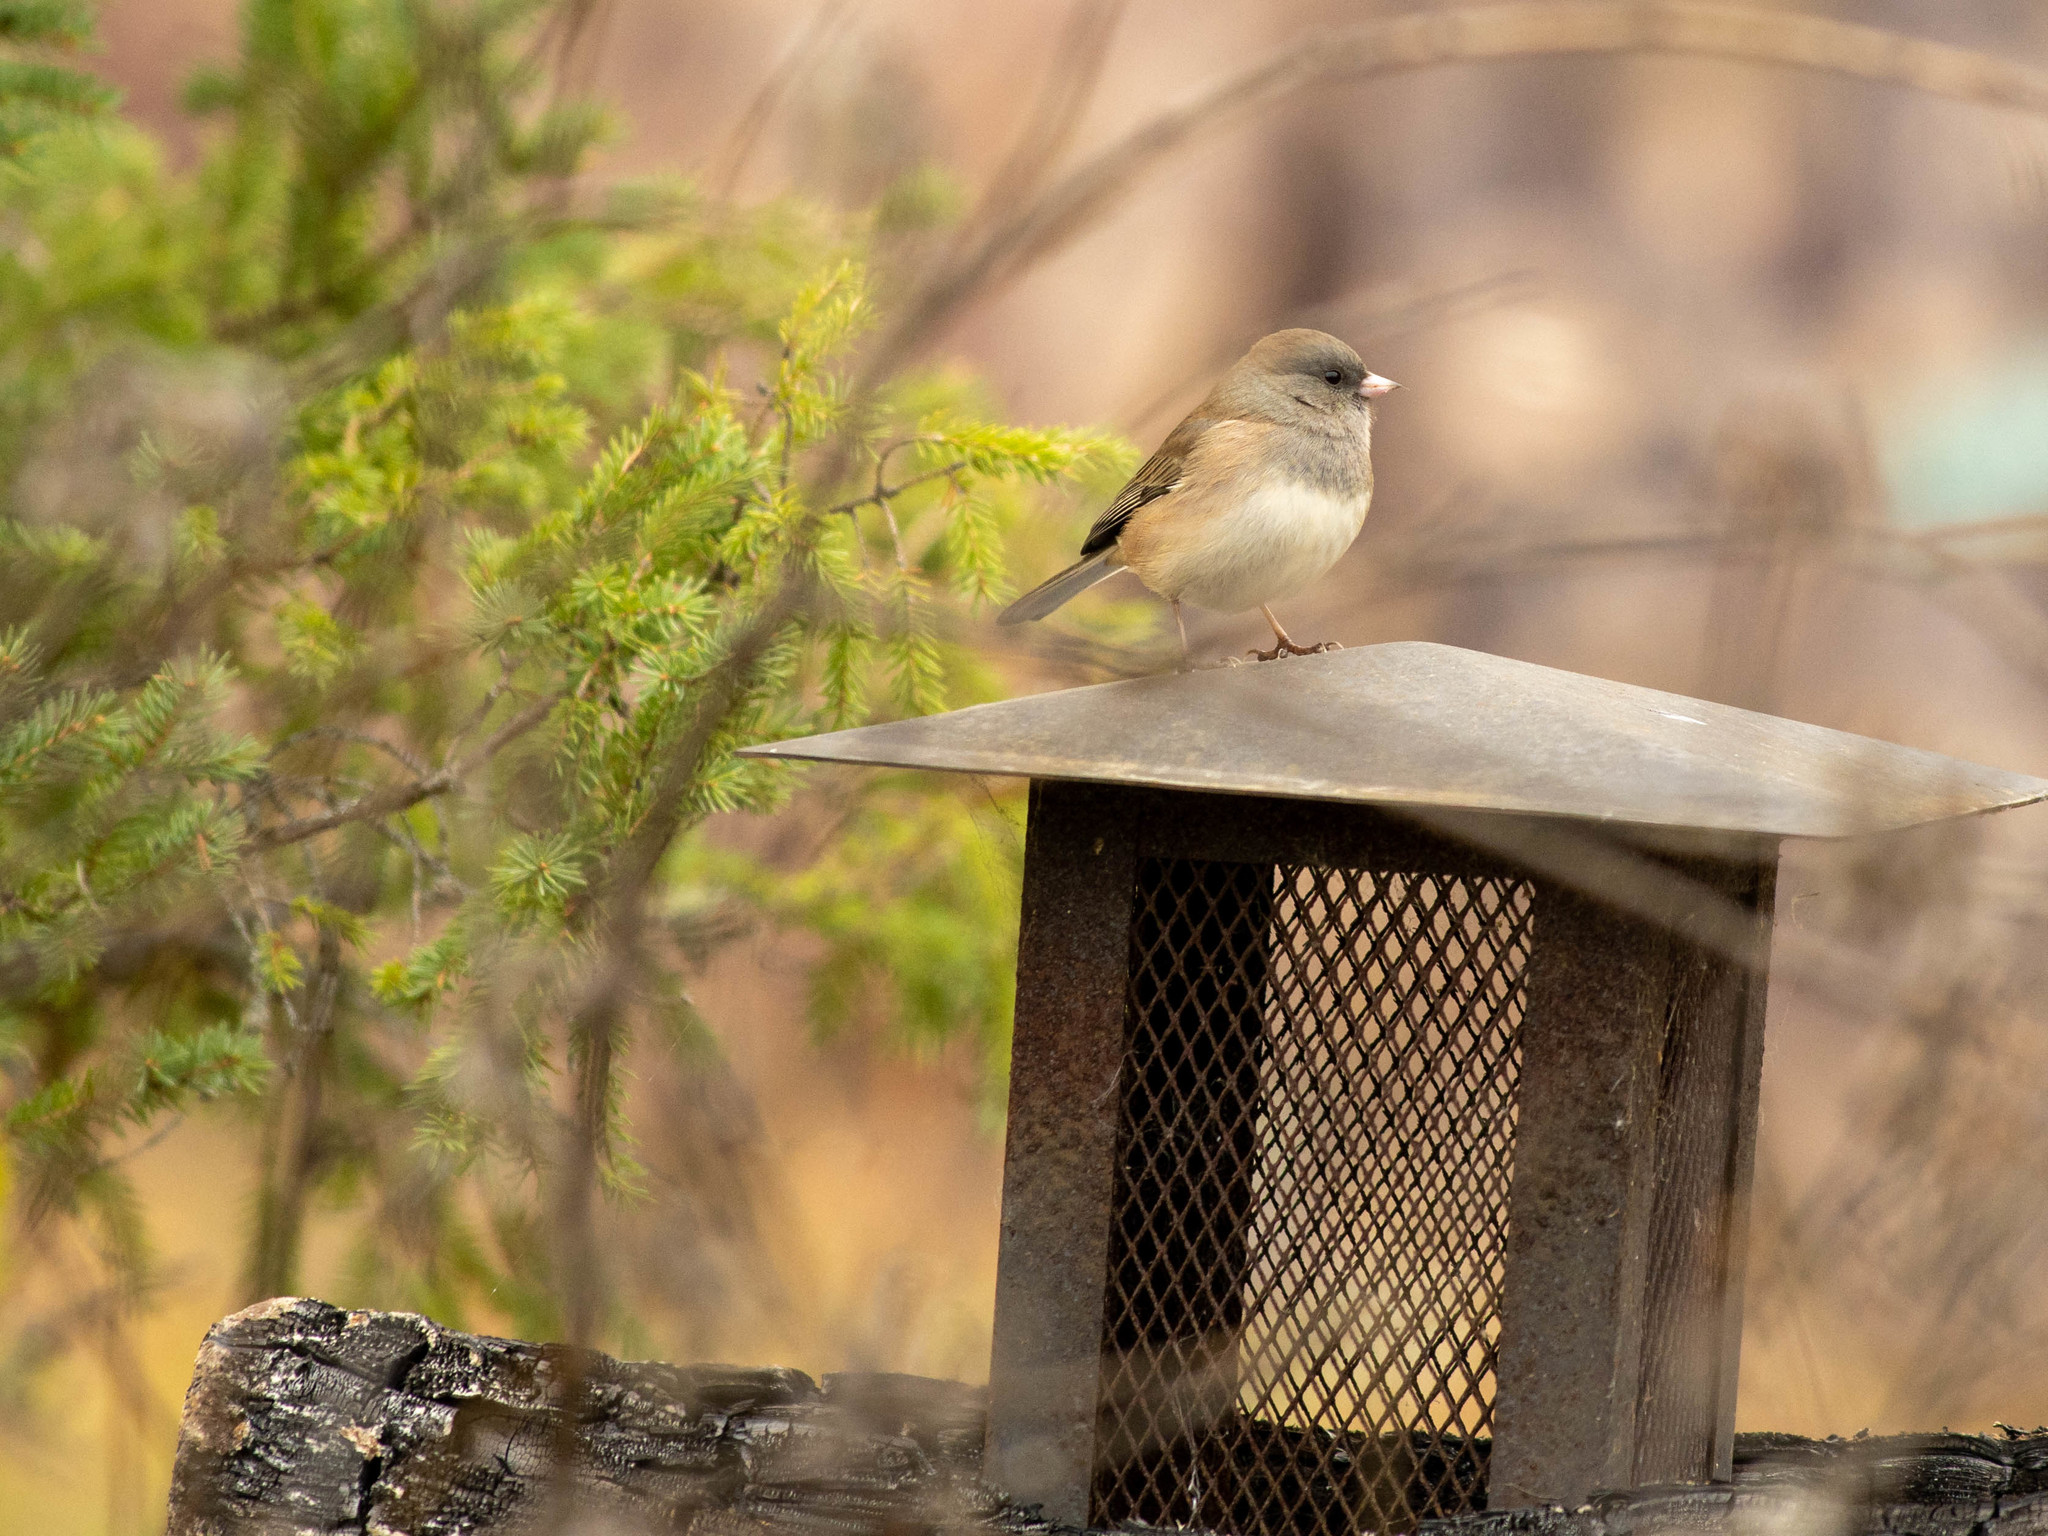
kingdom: Animalia
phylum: Chordata
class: Aves
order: Passeriformes
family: Passerellidae
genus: Junco
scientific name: Junco hyemalis
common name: Dark-eyed junco
